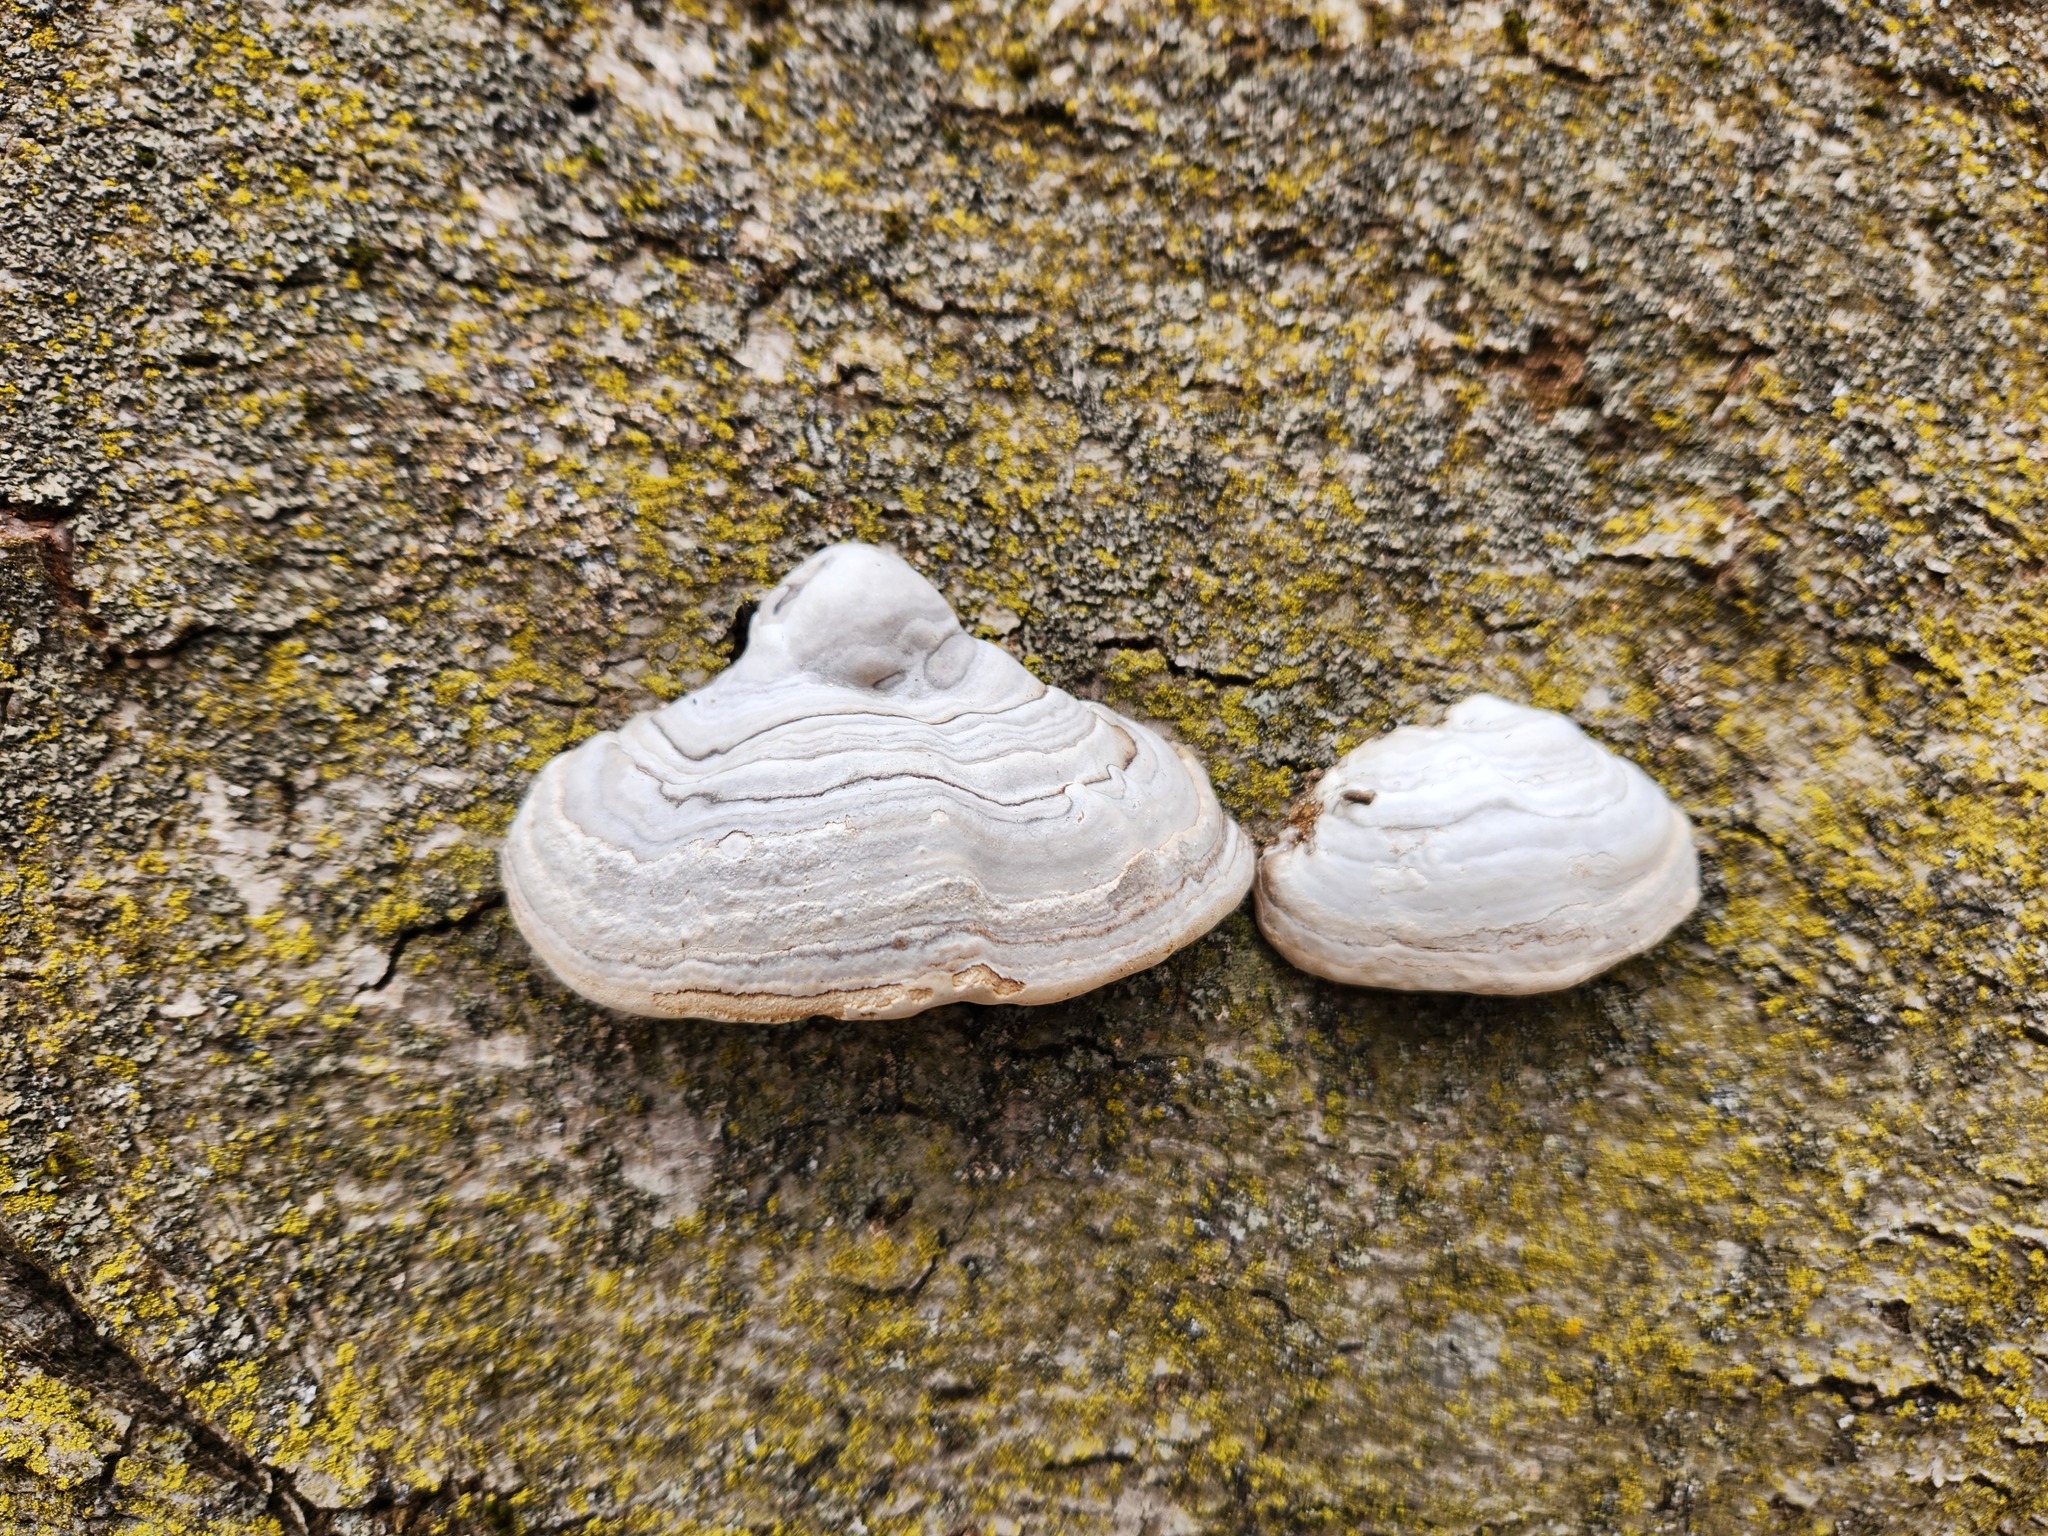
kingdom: Fungi
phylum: Basidiomycota
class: Agaricomycetes
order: Polyporales
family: Polyporaceae
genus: Fomes
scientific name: Fomes fomentarius
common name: Hoof fungus
